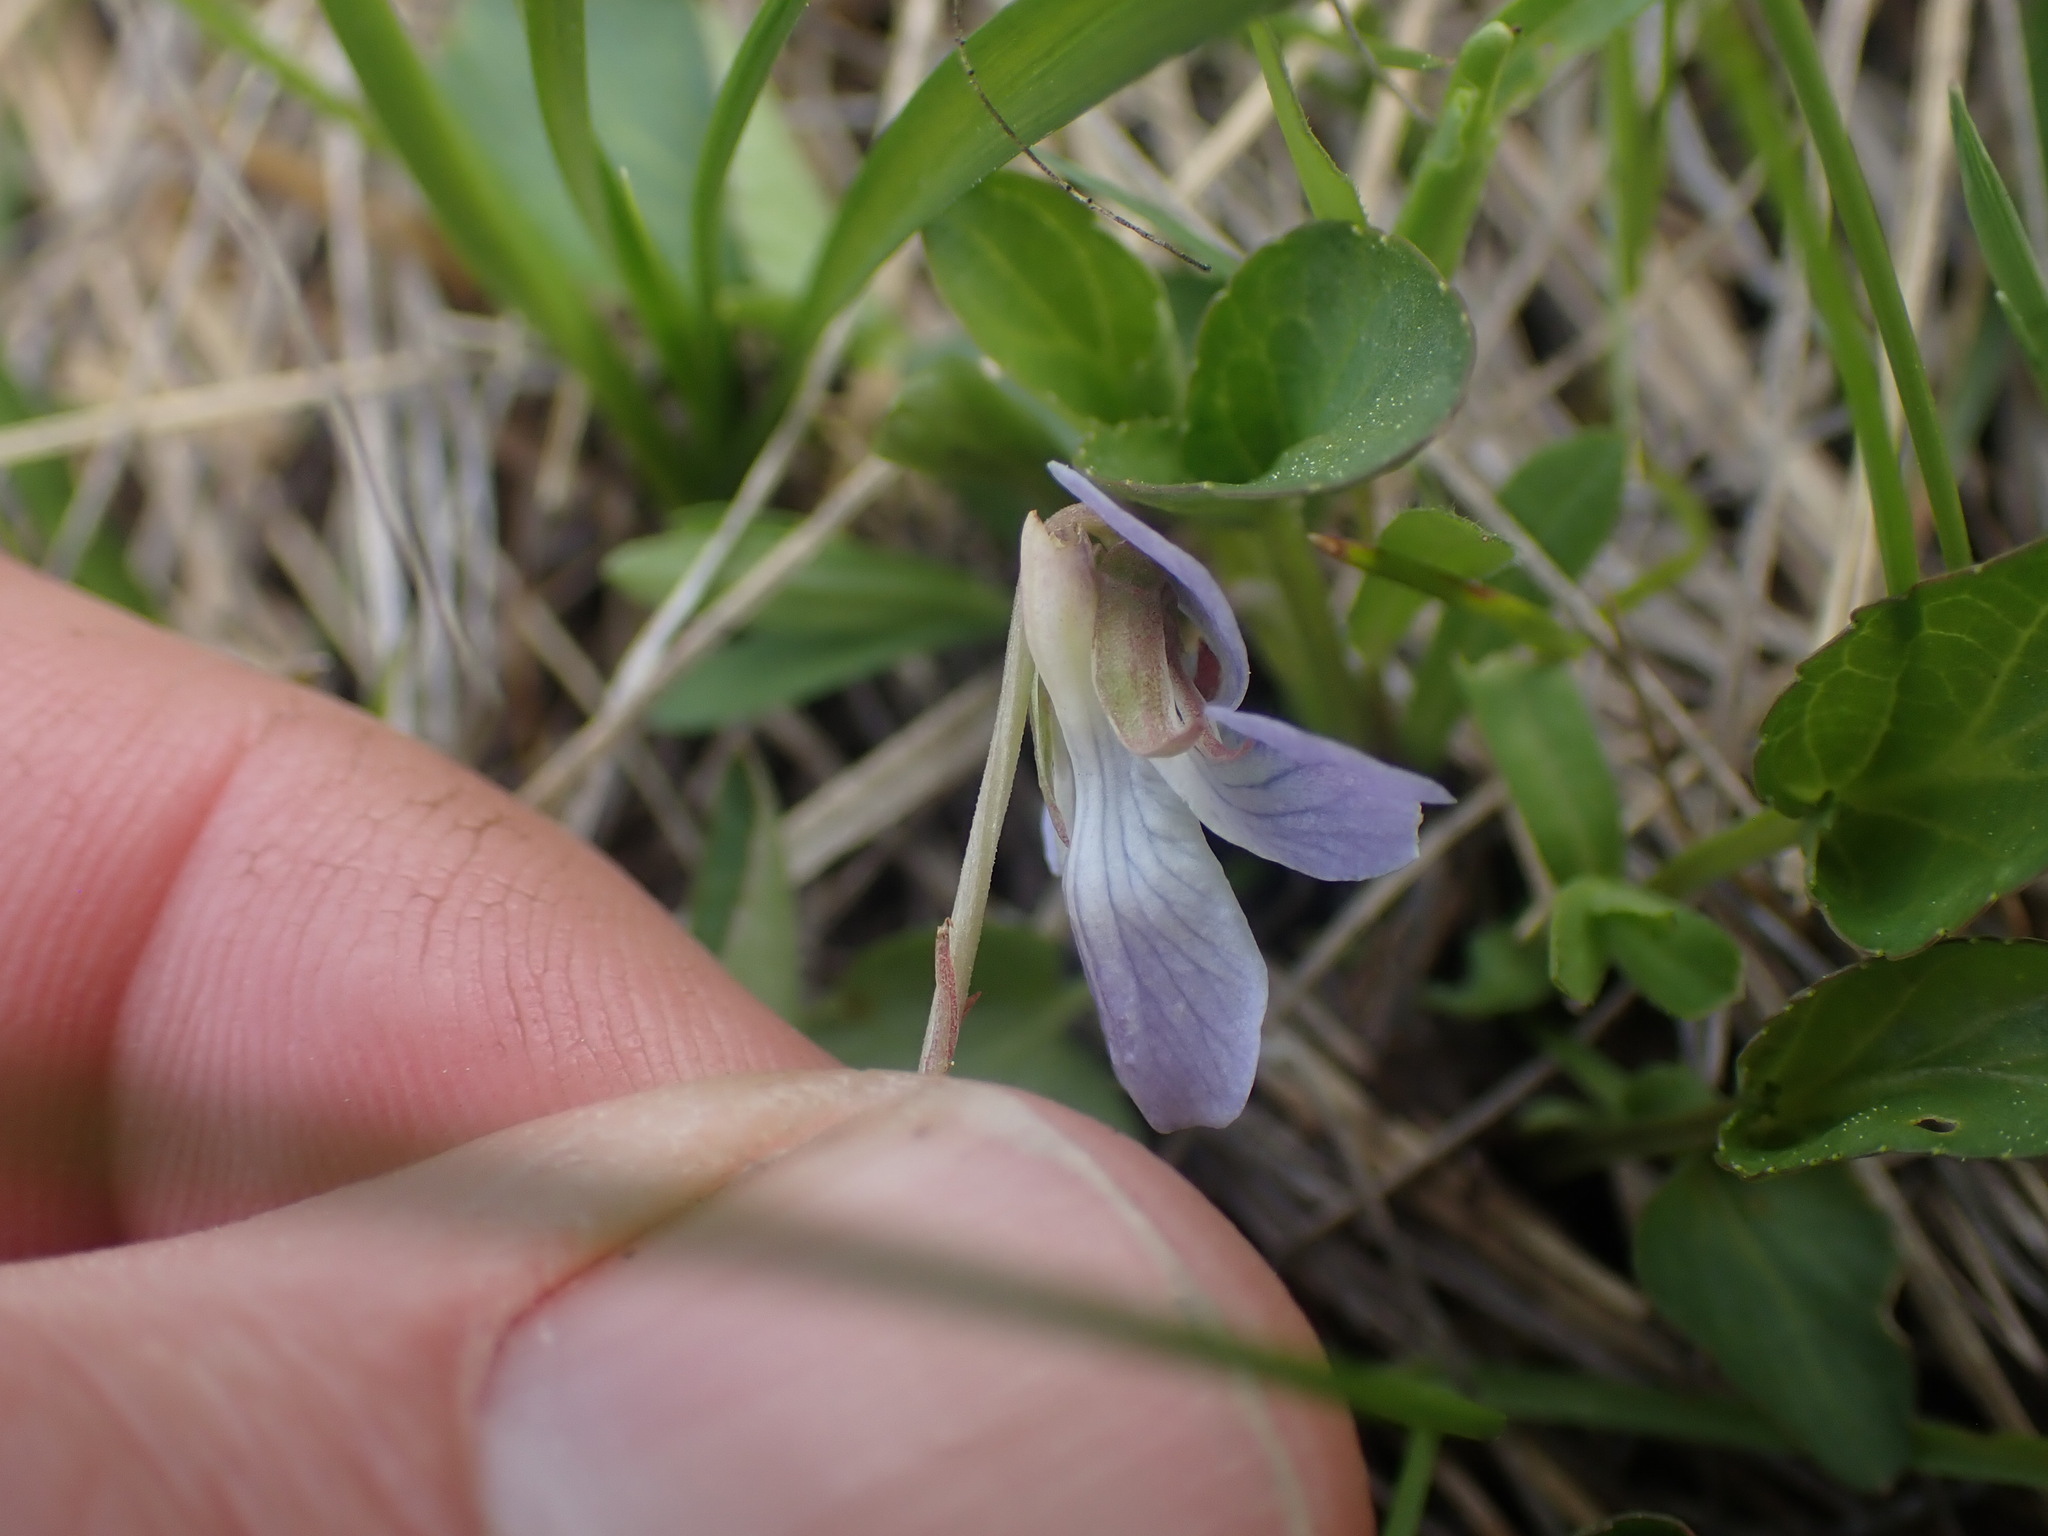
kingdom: Plantae
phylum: Tracheophyta
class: Magnoliopsida
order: Malpighiales
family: Violaceae
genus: Viola
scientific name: Viola adunca
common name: Sand violet
